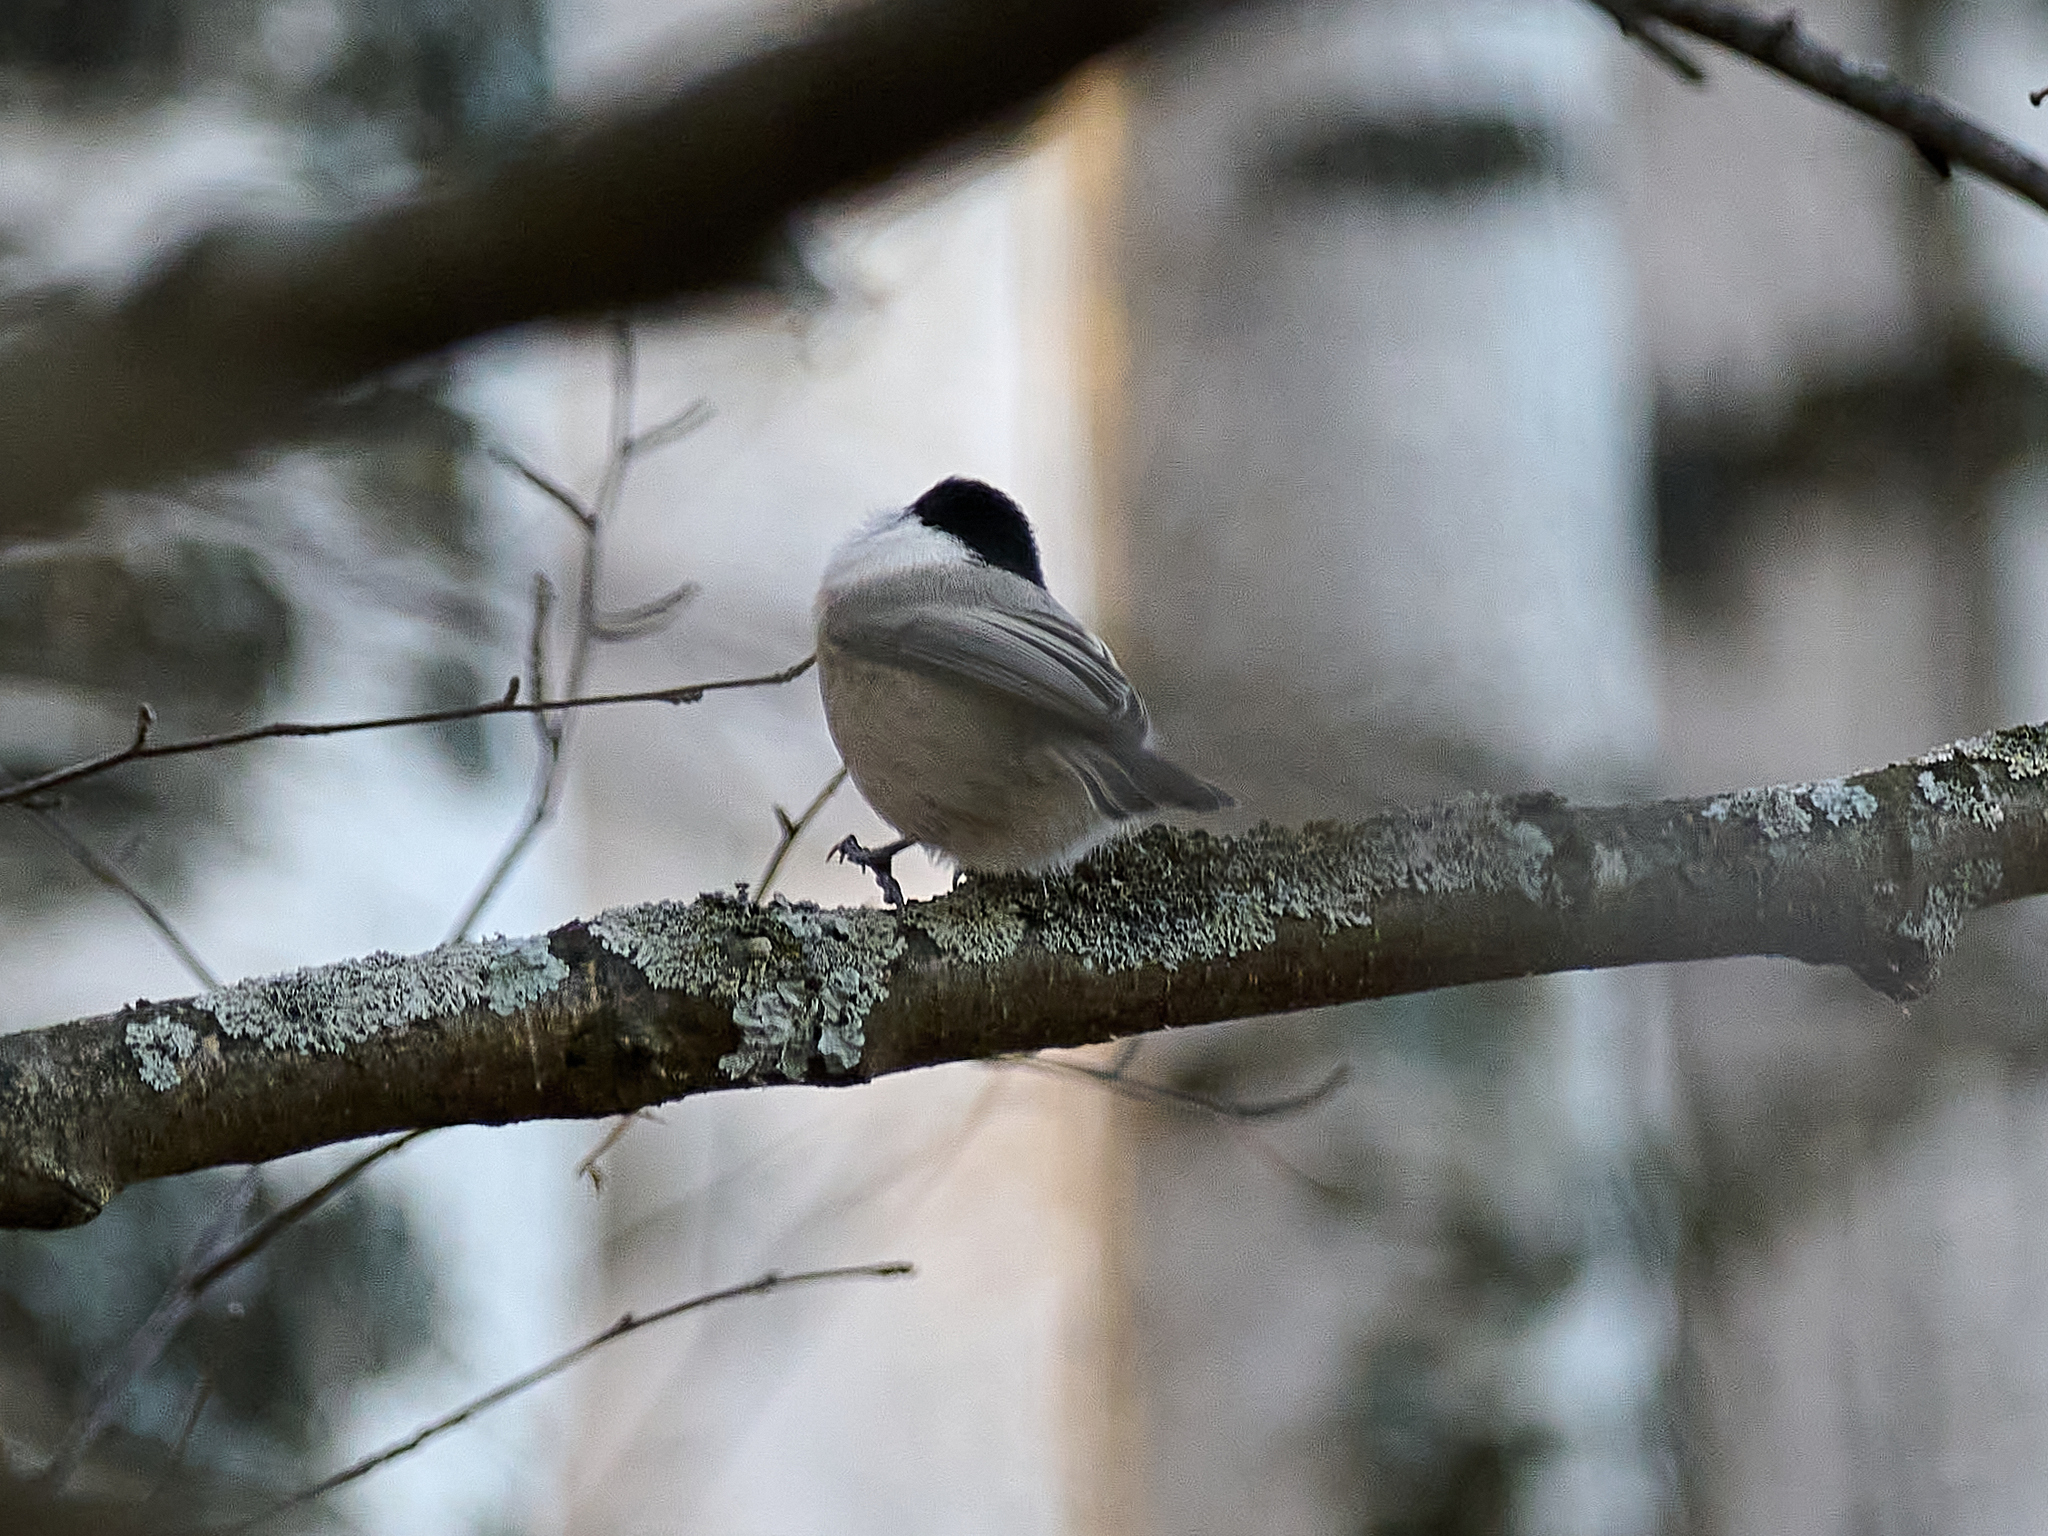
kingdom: Animalia
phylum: Chordata
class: Aves
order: Passeriformes
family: Paridae
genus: Poecile
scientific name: Poecile montanus
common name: Willow tit
